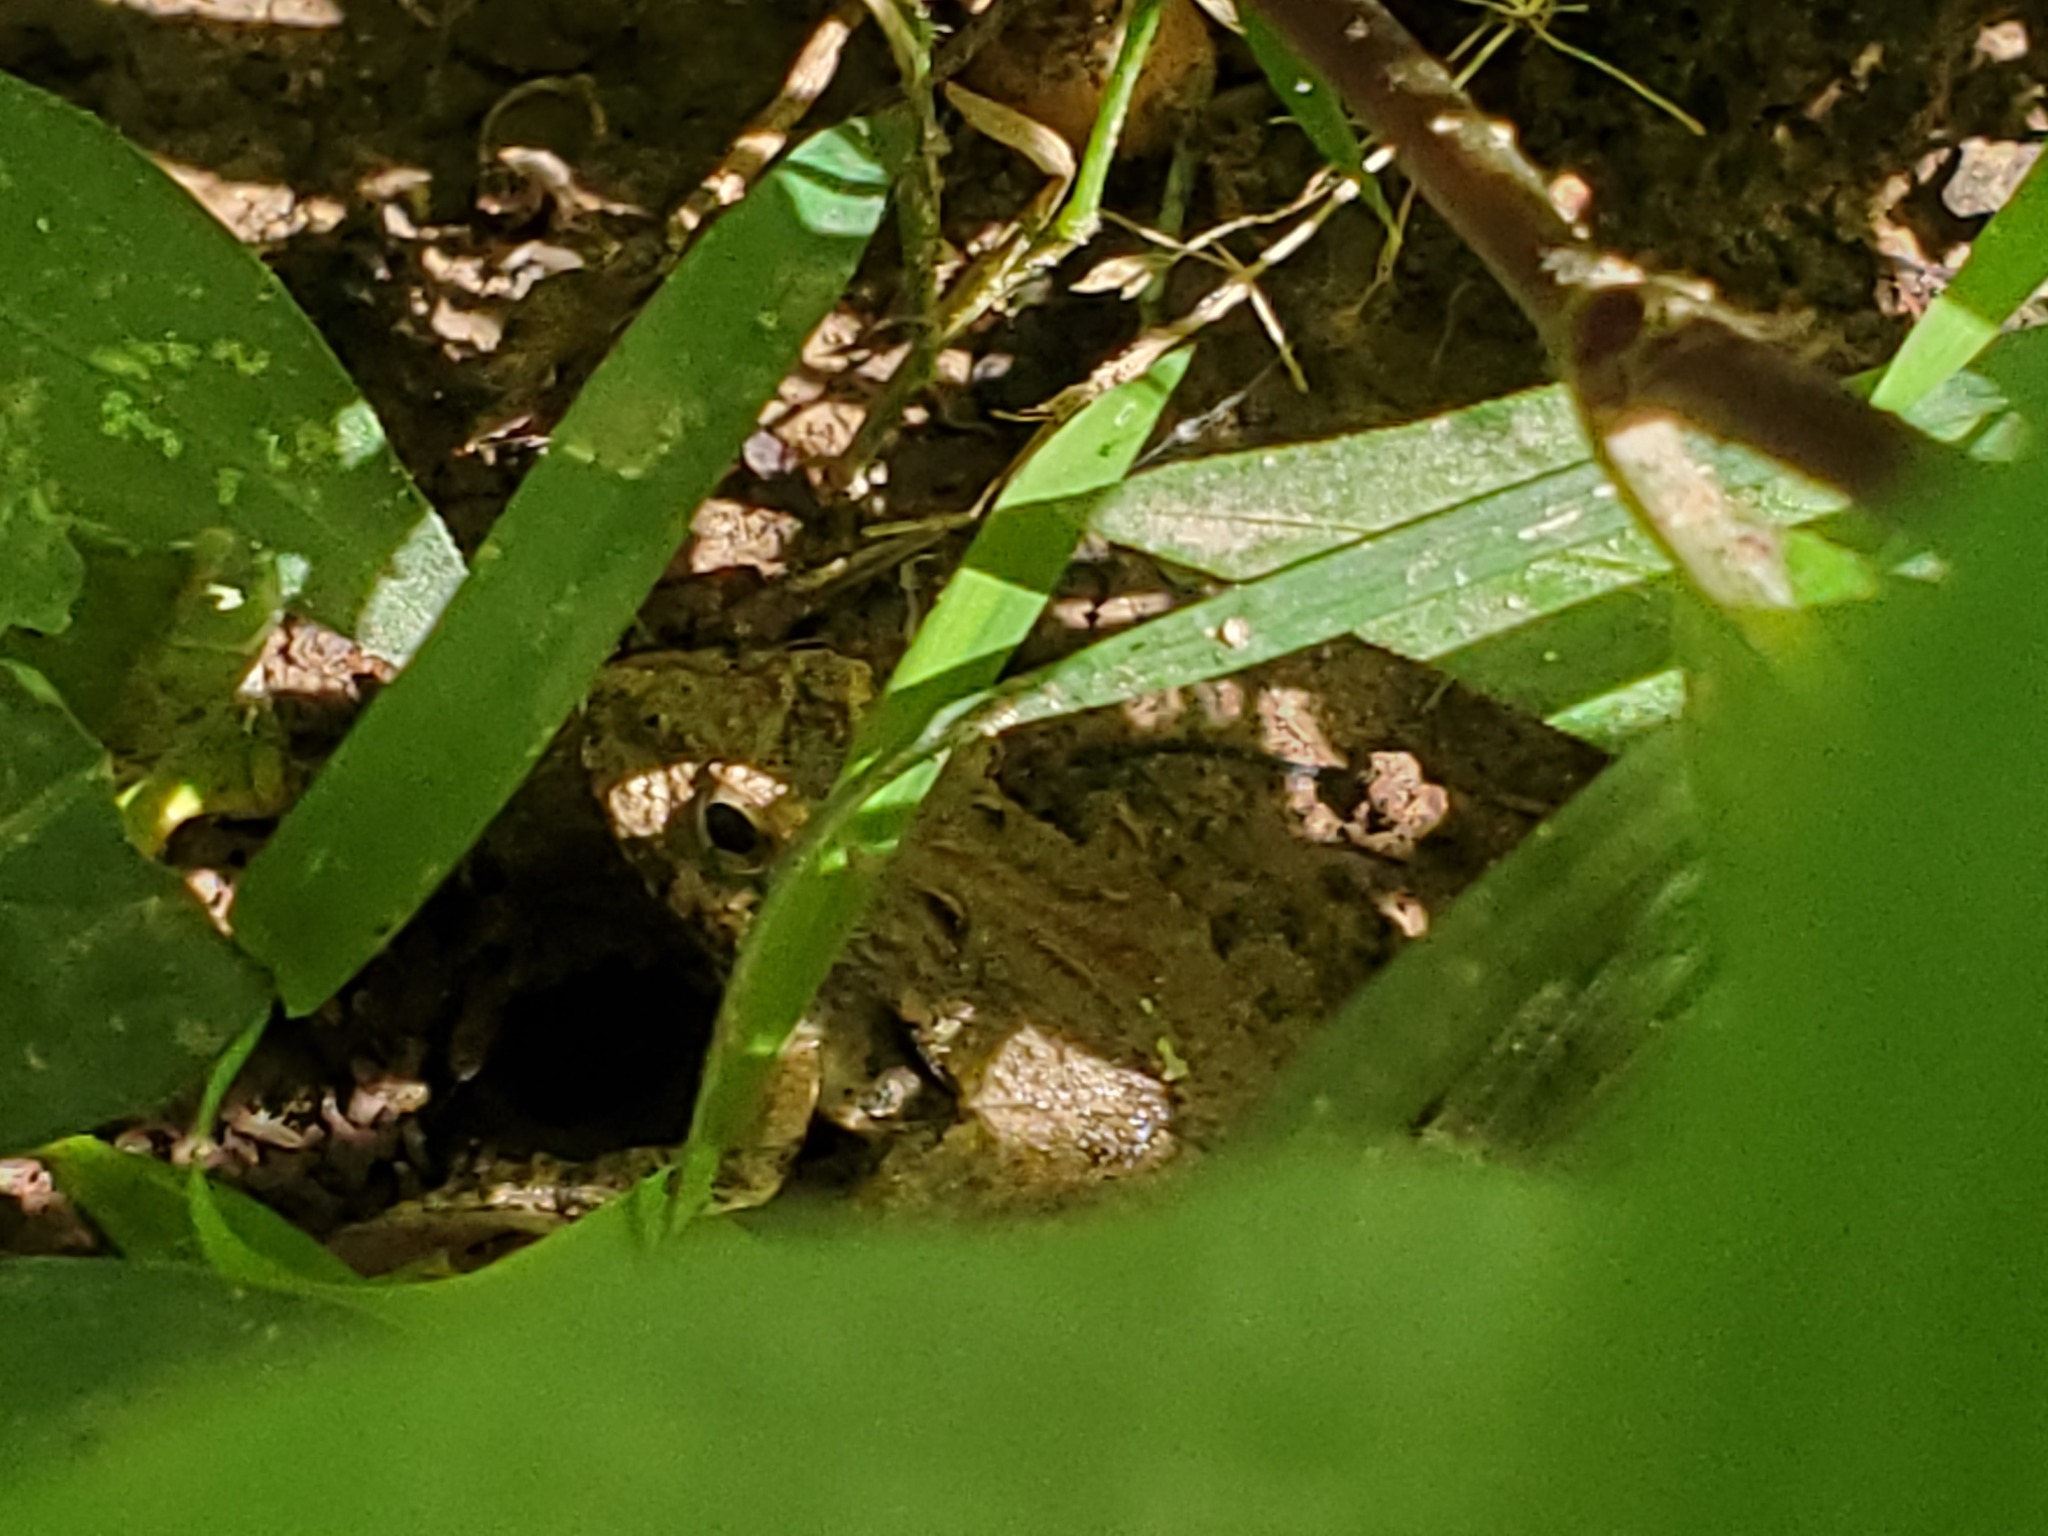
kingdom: Animalia
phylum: Chordata
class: Amphibia
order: Anura
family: Hylidae
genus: Acris
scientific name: Acris crepitans
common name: Northern cricket frog
